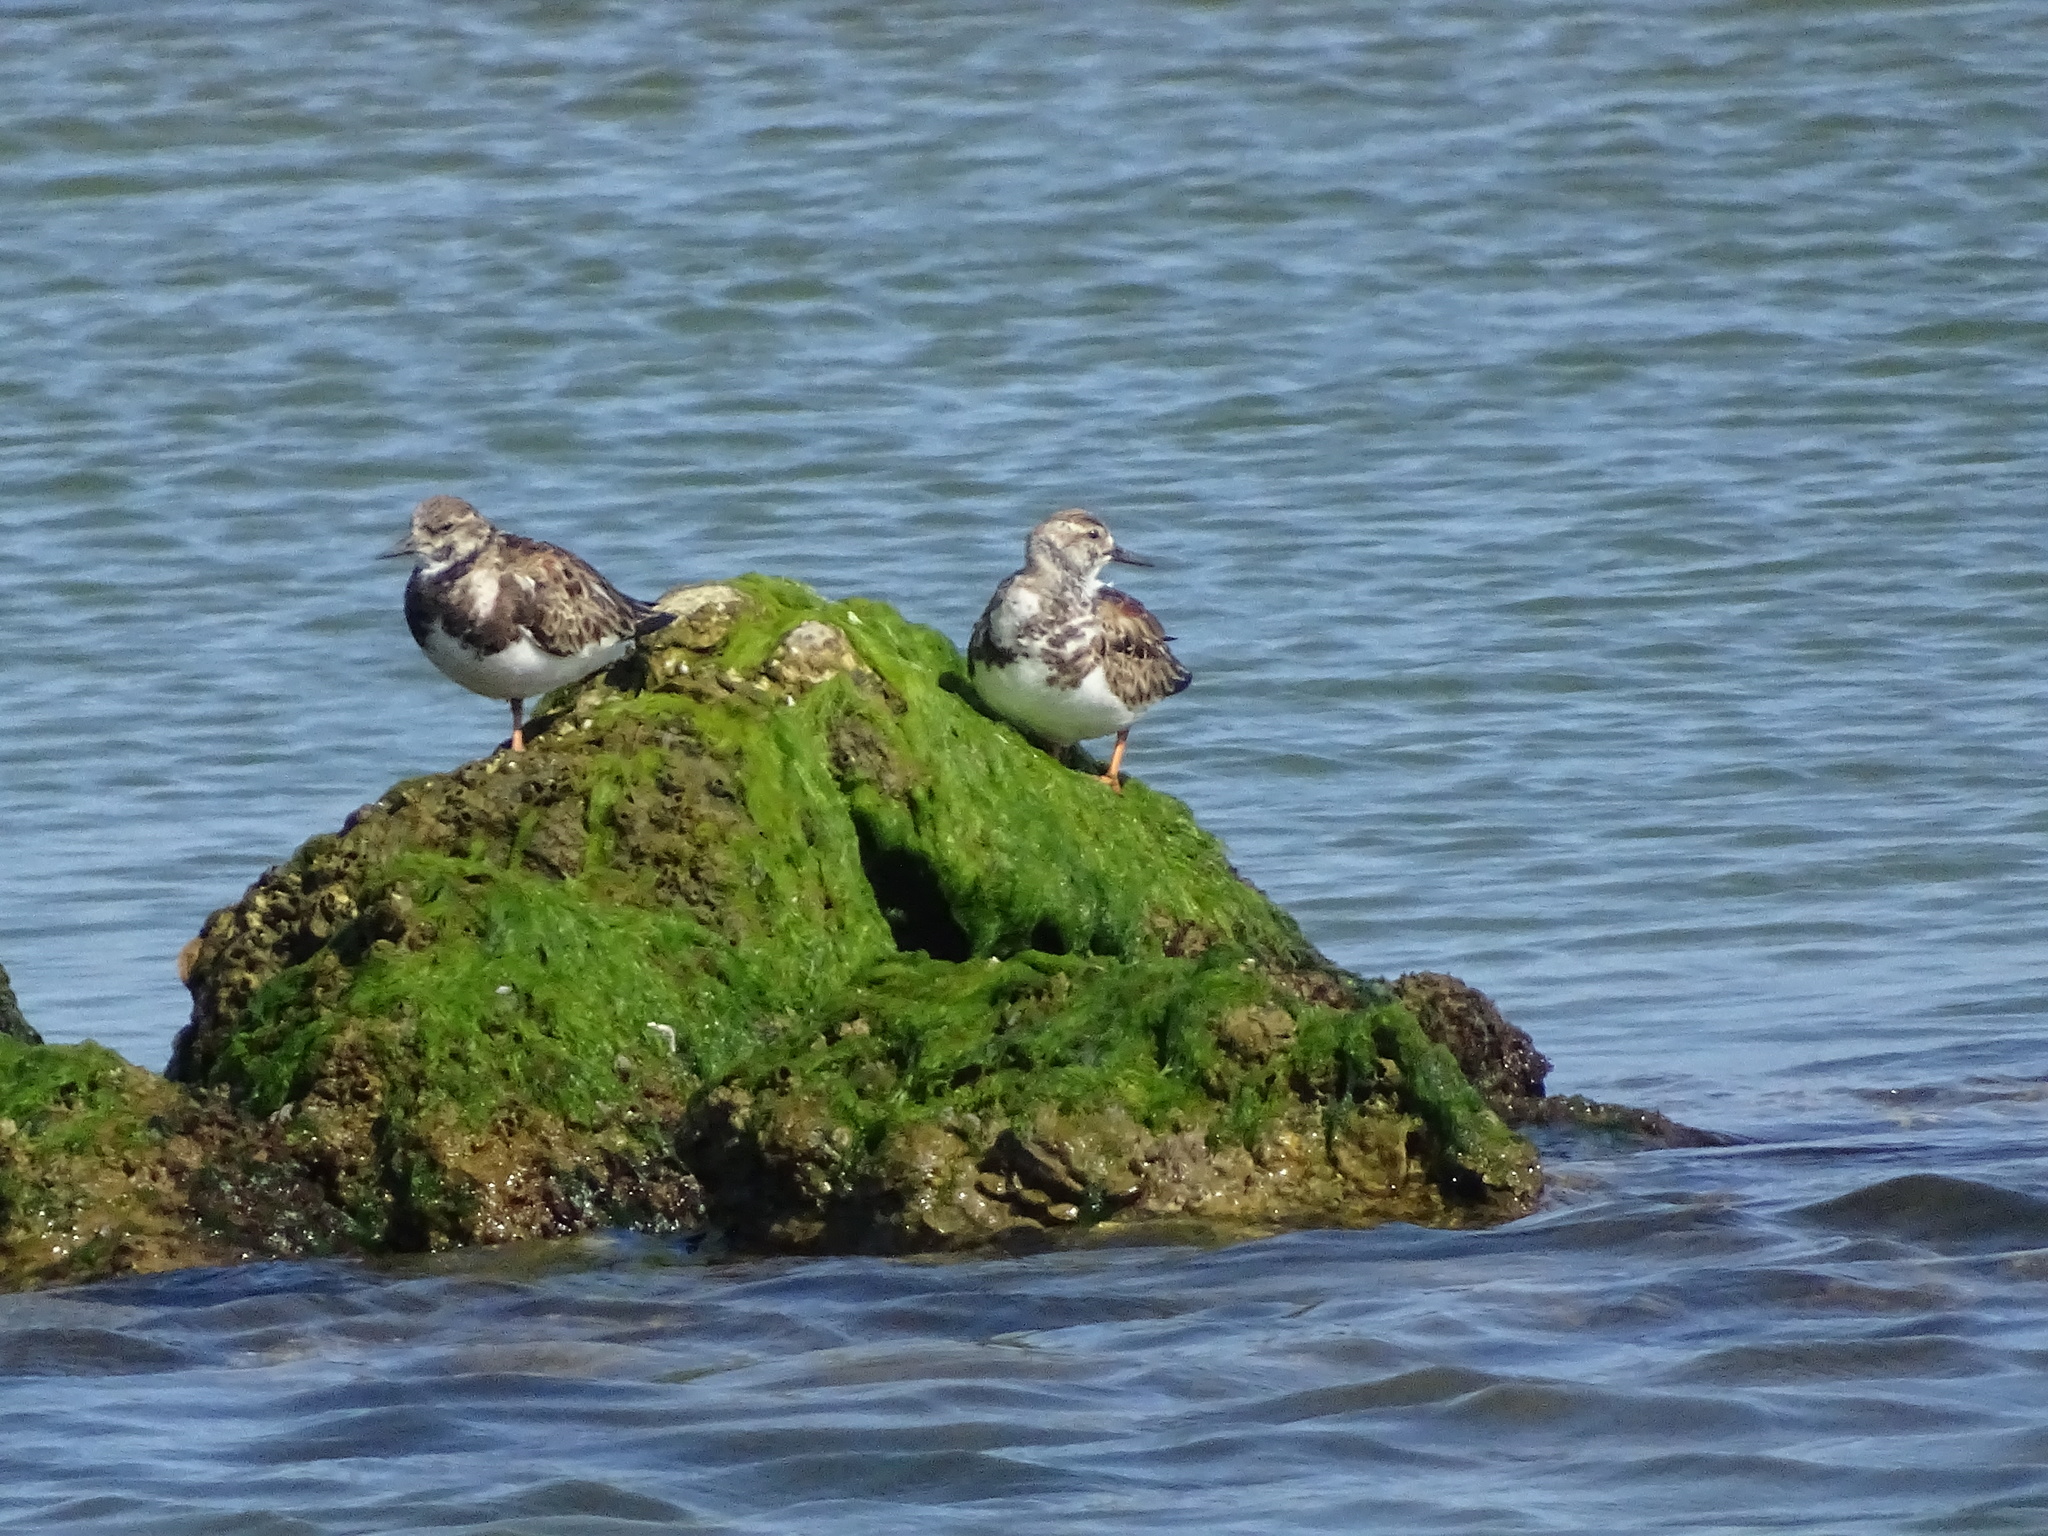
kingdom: Animalia
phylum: Chordata
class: Aves
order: Charadriiformes
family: Scolopacidae
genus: Arenaria
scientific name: Arenaria interpres
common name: Ruddy turnstone
